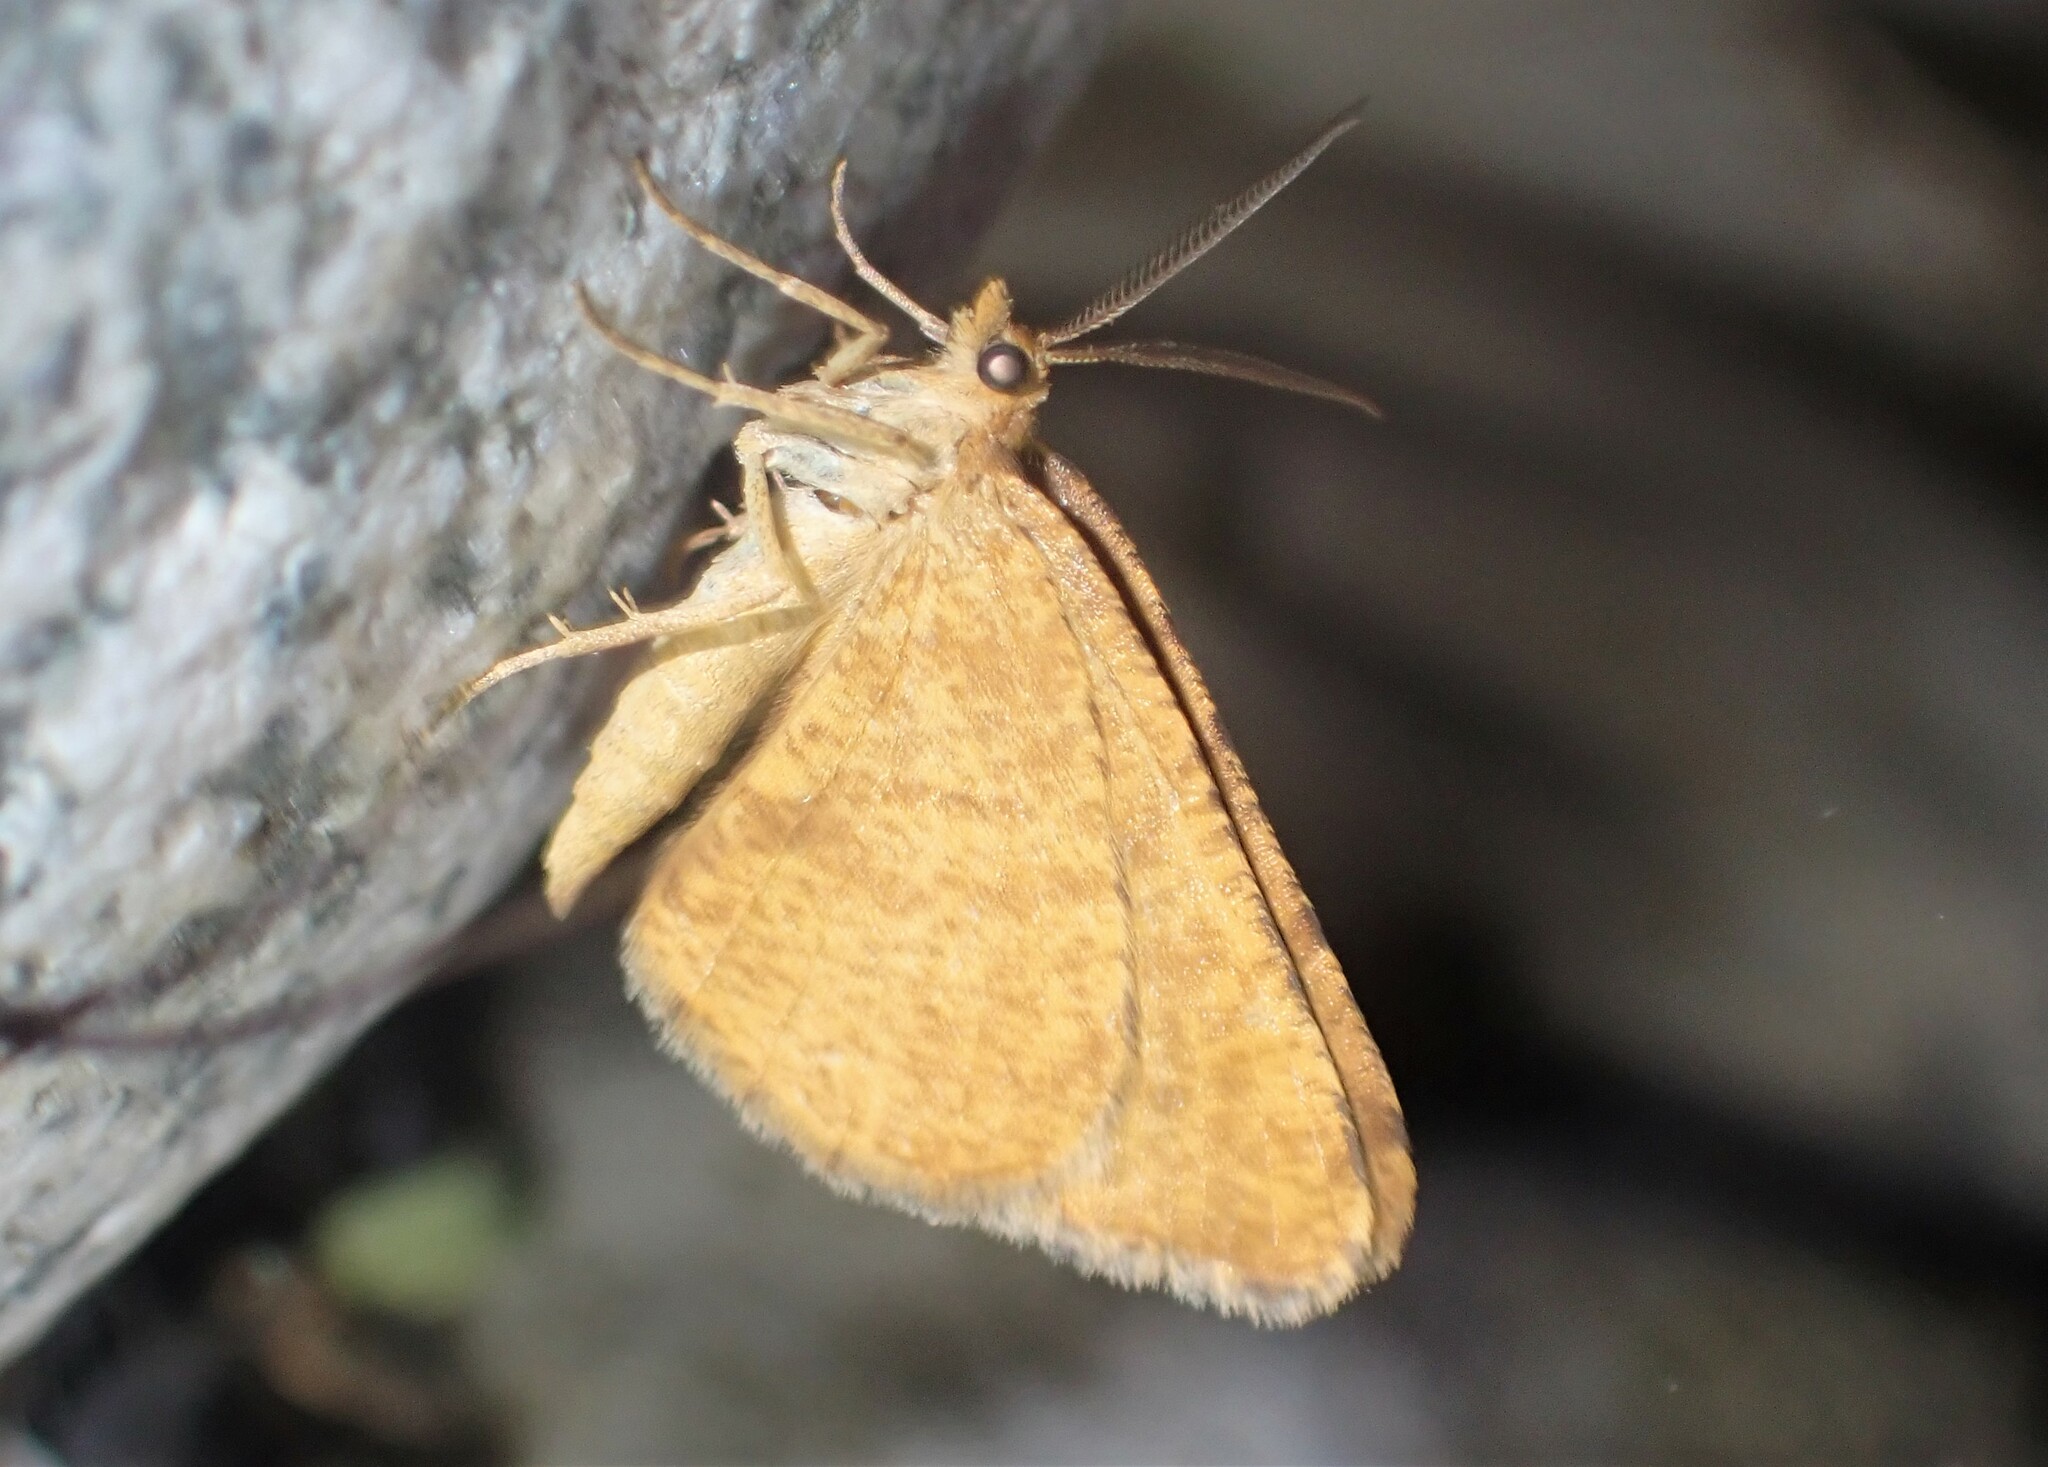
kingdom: Animalia
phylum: Arthropoda
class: Insecta
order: Lepidoptera
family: Geometridae
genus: Macaria
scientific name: Macaria brunneata
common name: Rannoch looper
